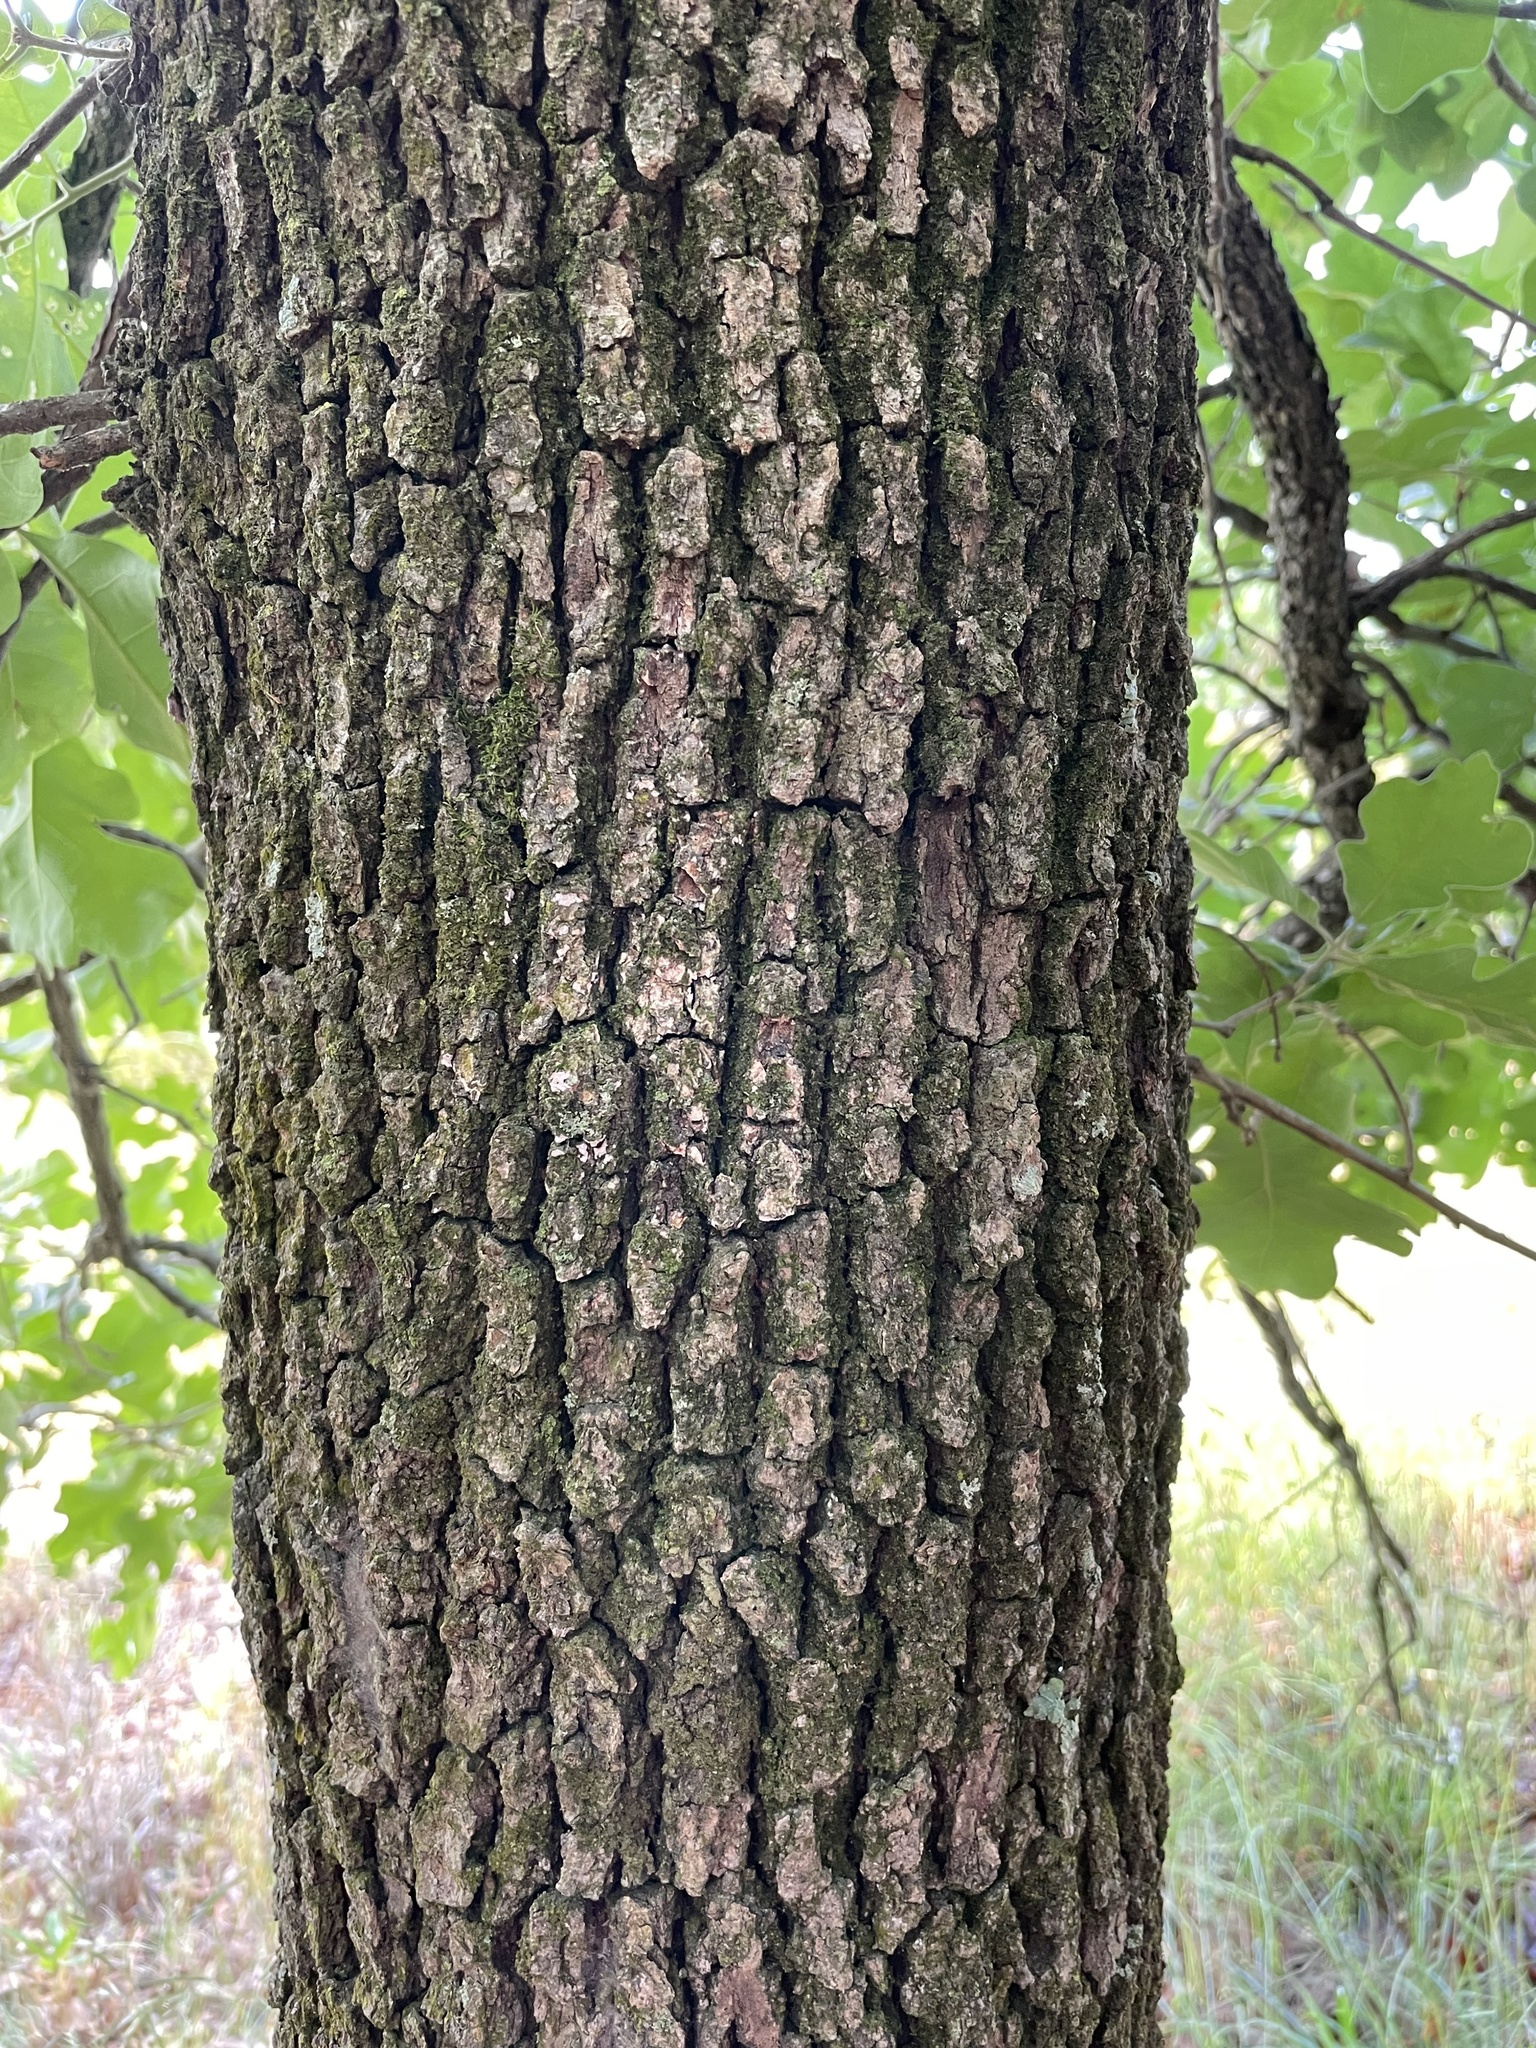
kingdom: Plantae
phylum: Tracheophyta
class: Magnoliopsida
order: Fagales
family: Fagaceae
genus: Quercus
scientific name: Quercus stellata
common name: Post oak
